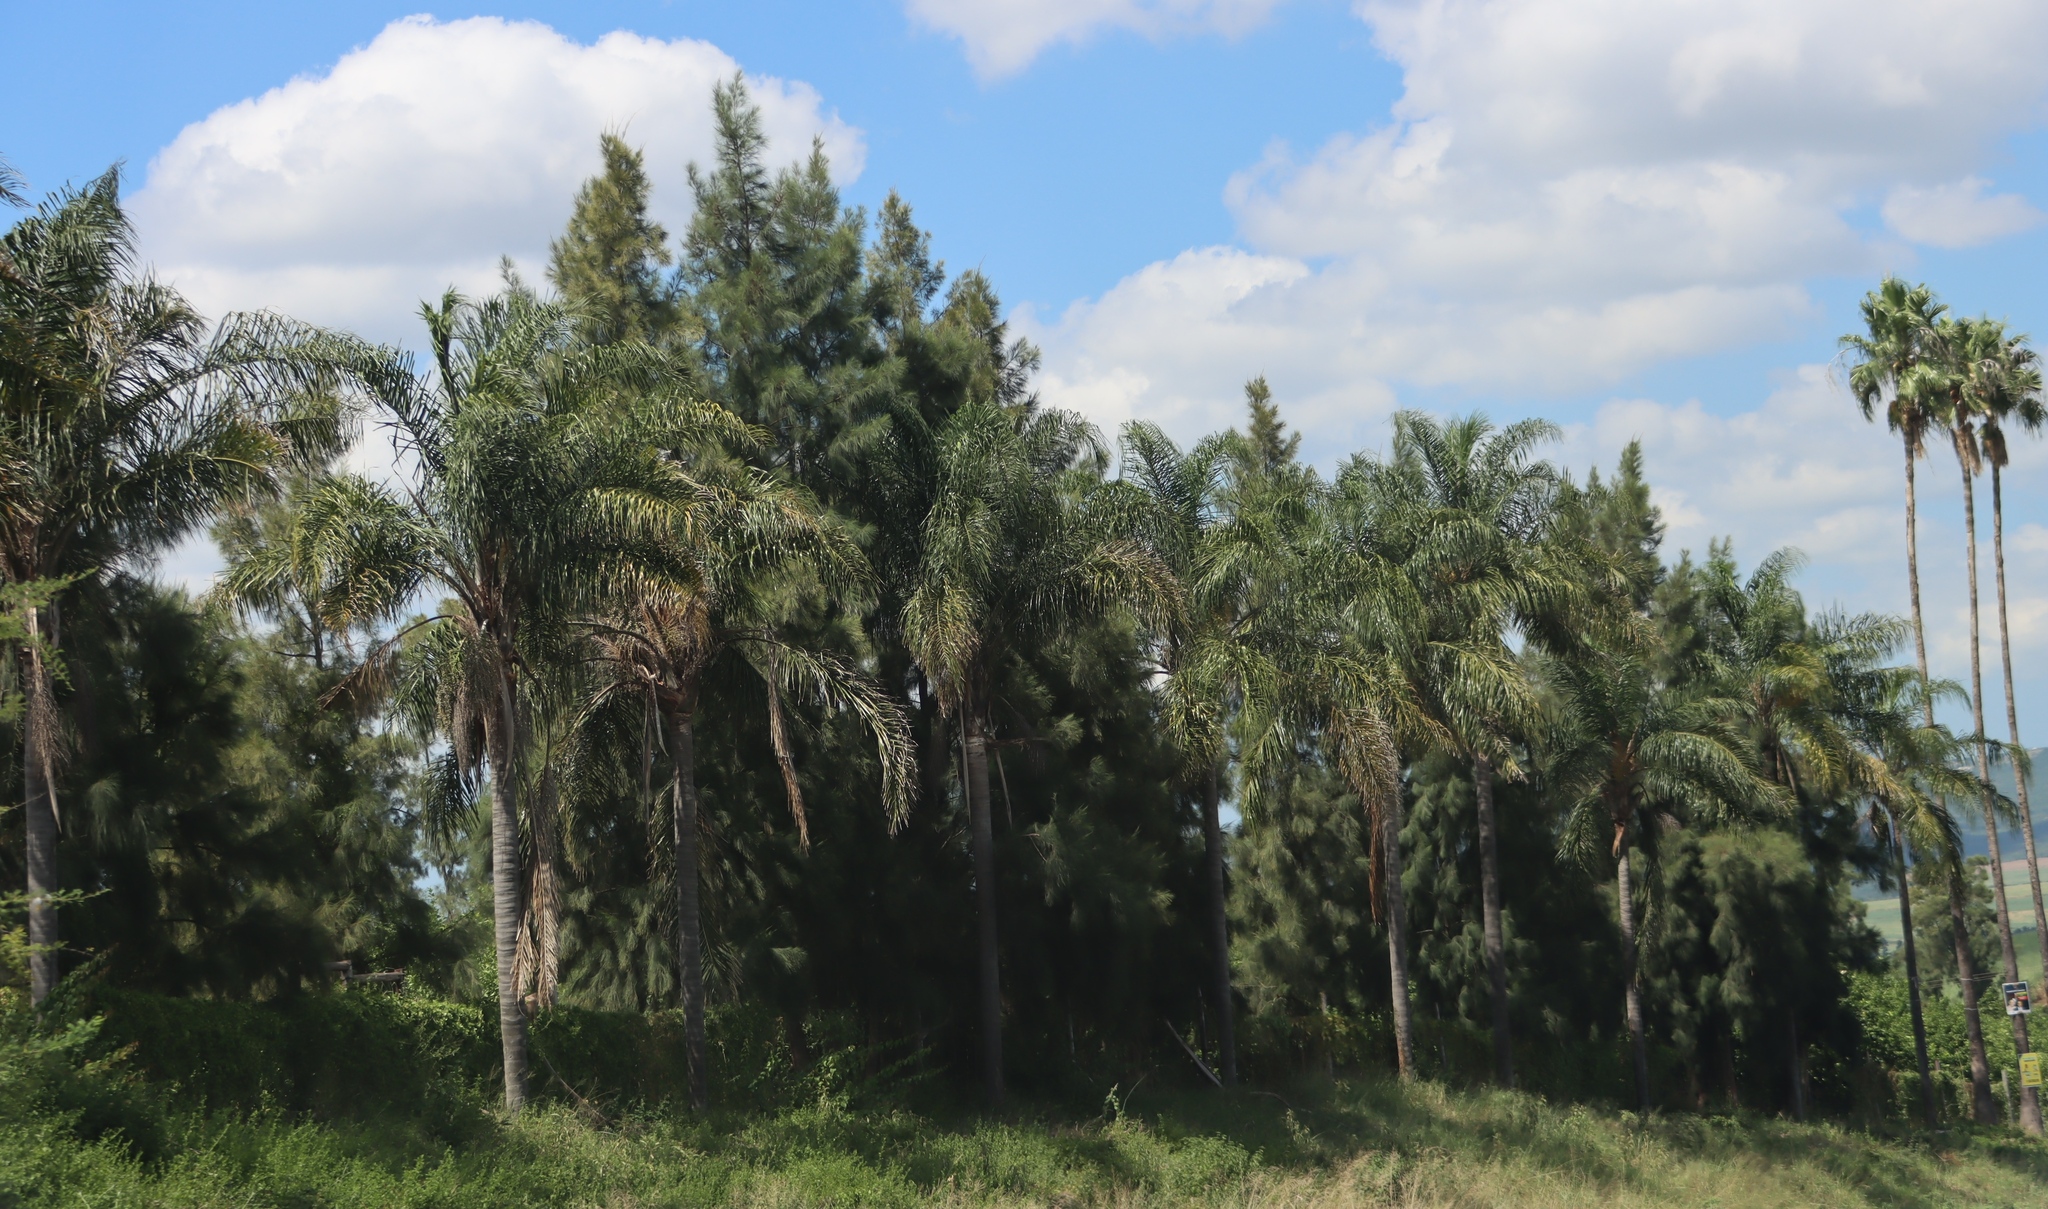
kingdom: Plantae
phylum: Tracheophyta
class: Liliopsida
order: Arecales
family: Arecaceae
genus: Syagrus
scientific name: Syagrus romanzoffiana
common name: Queen palm
